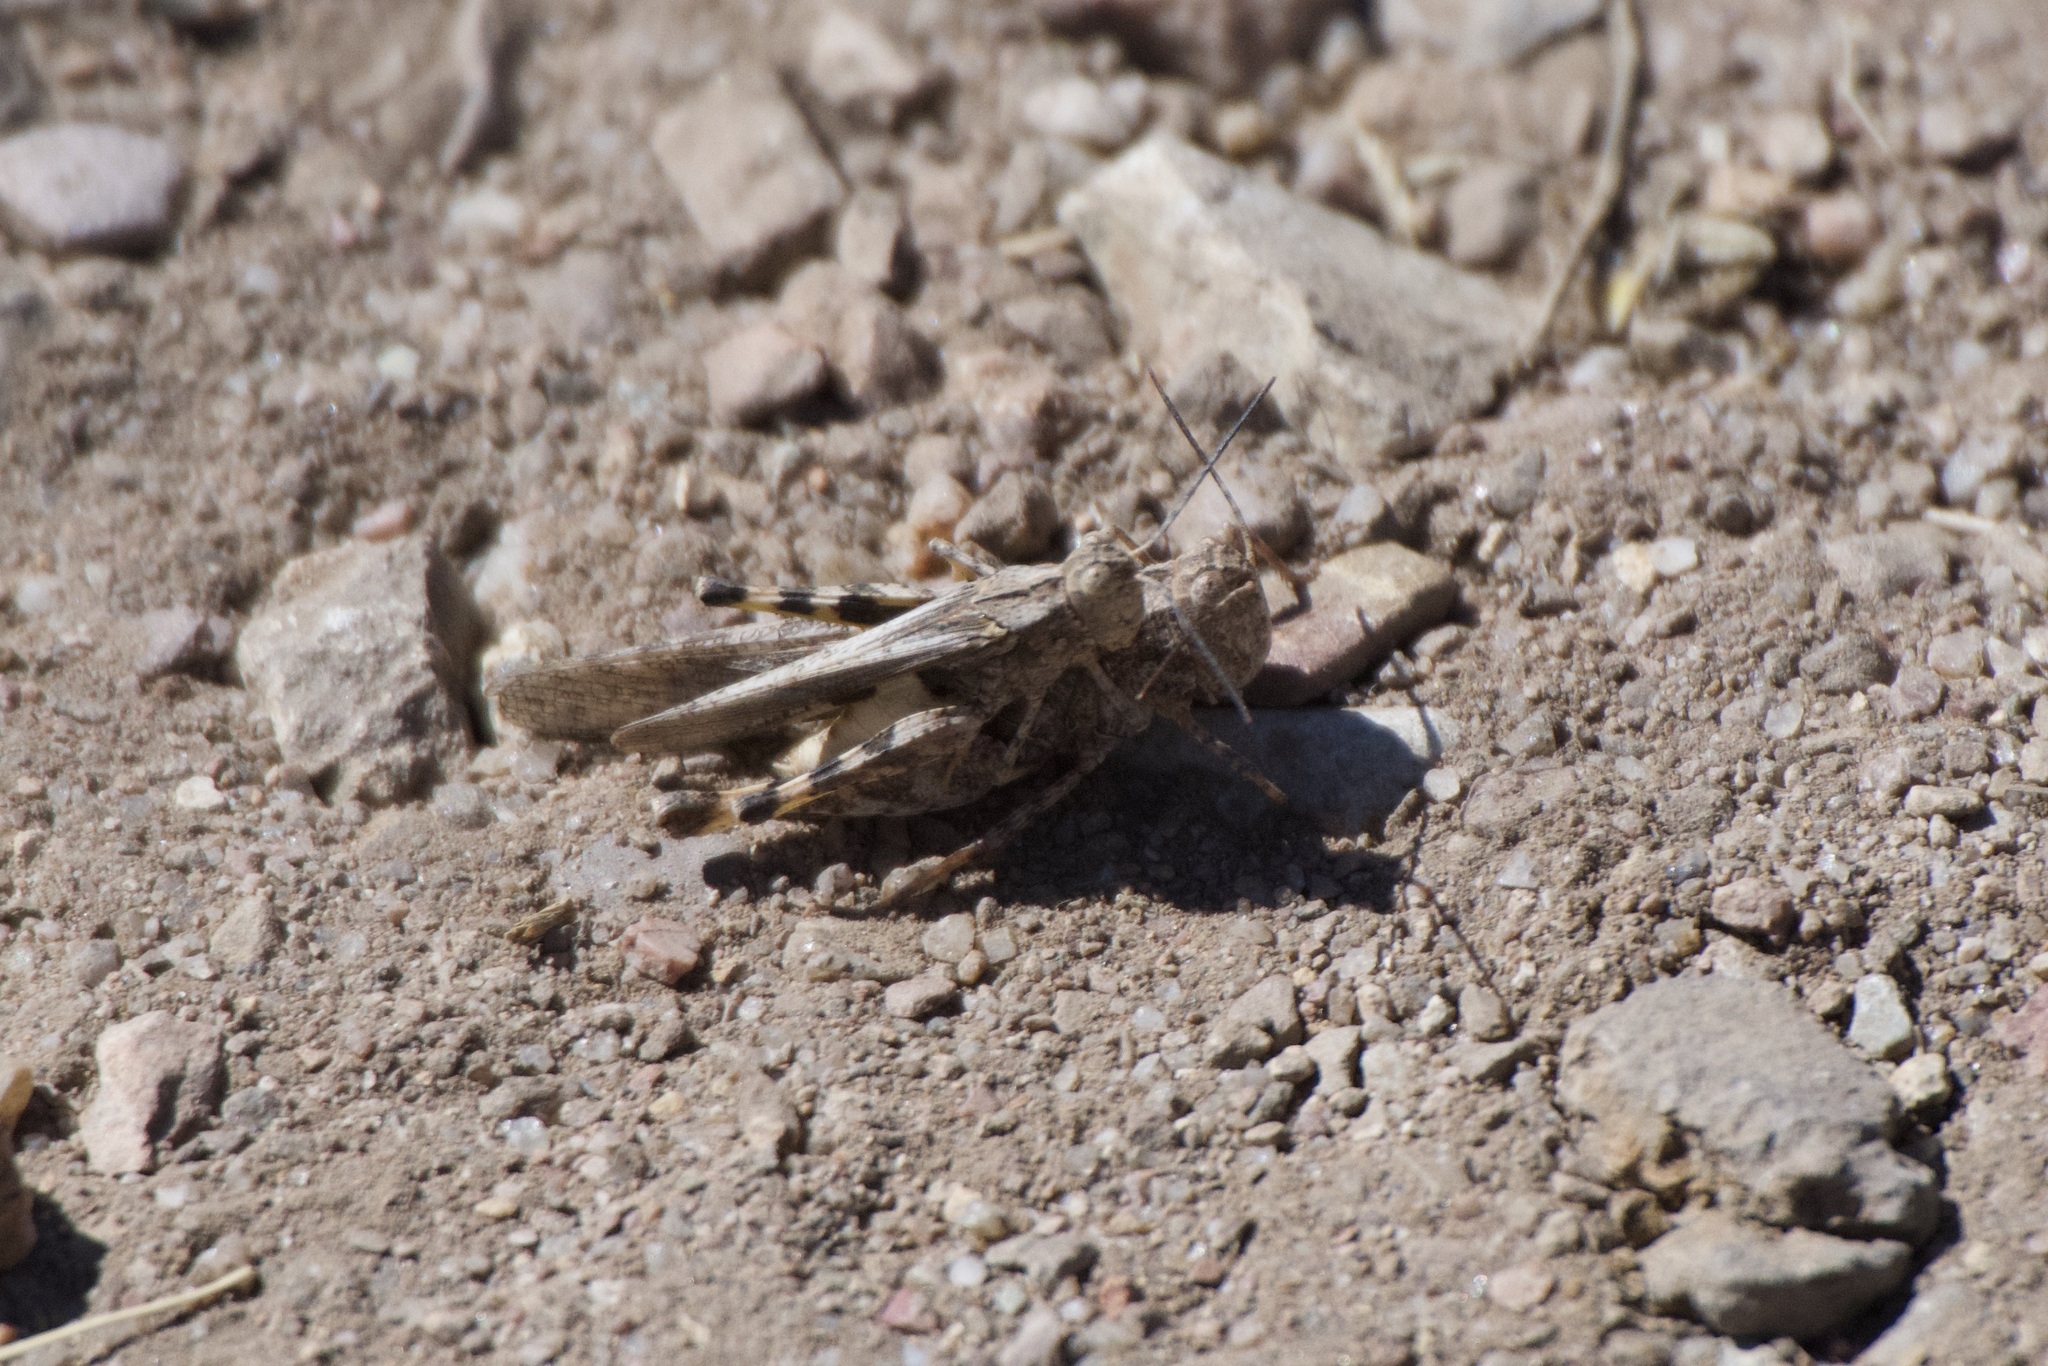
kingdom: Animalia
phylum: Arthropoda
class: Insecta
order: Orthoptera
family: Acrididae
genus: Conozoa
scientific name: Conozoa carinata
